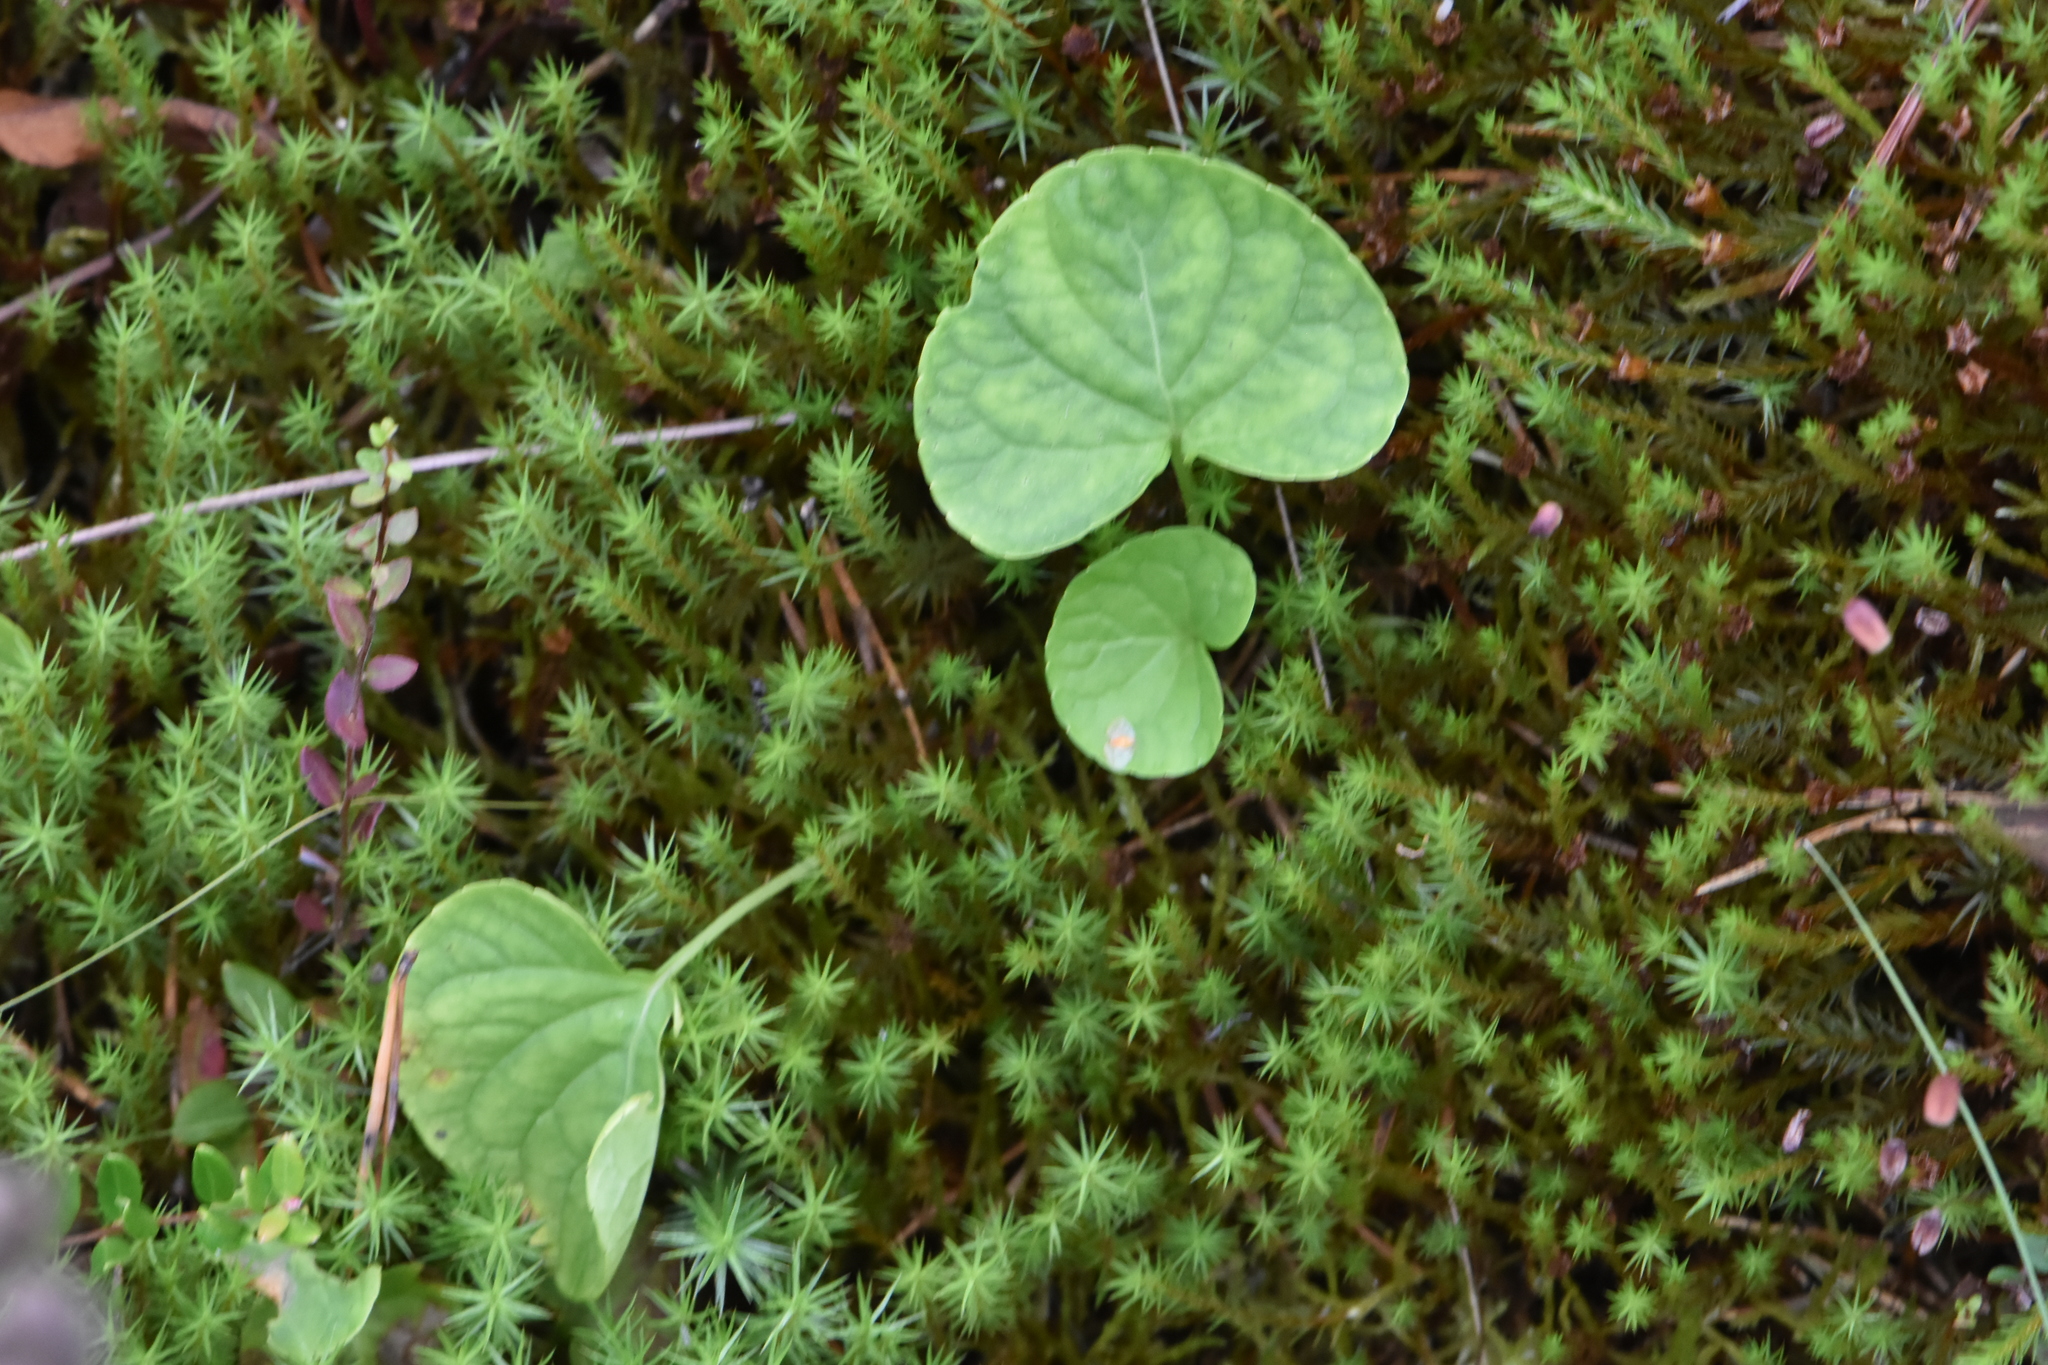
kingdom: Plantae
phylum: Tracheophyta
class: Magnoliopsida
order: Malpighiales
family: Violaceae
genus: Viola
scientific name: Viola palustris
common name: Marsh violet
